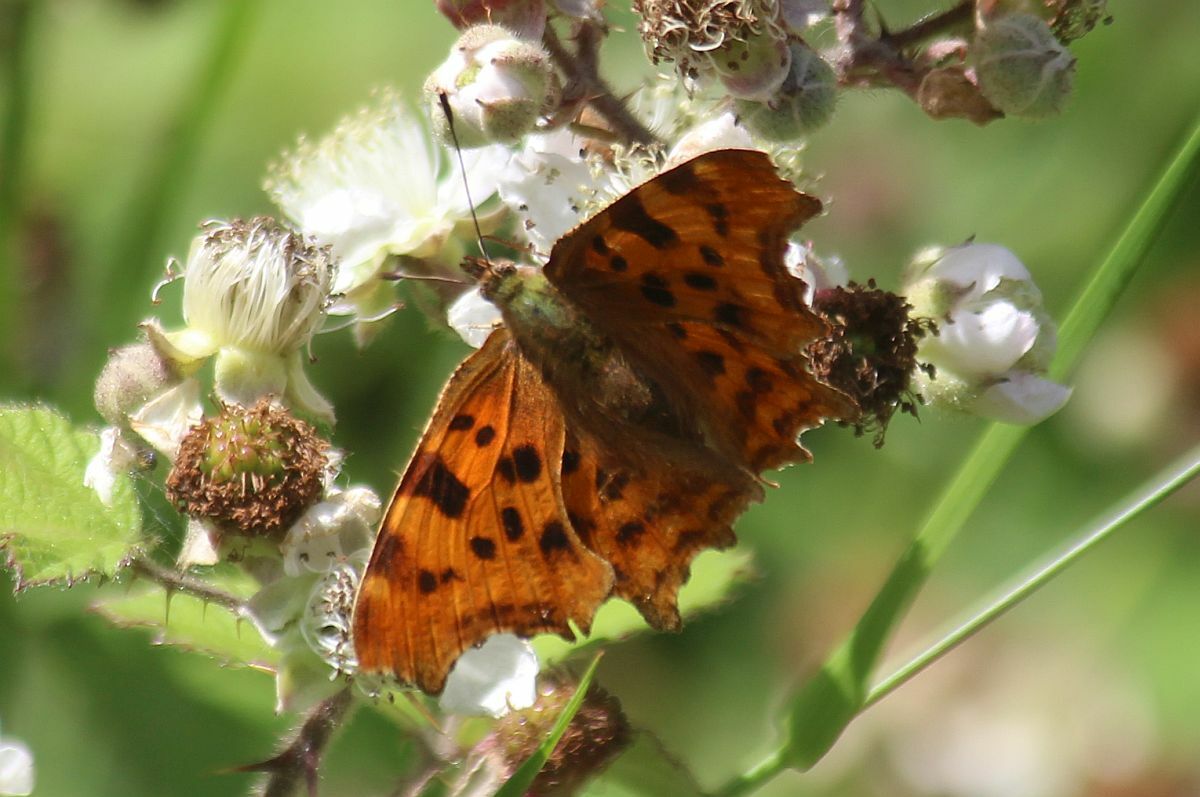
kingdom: Animalia
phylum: Arthropoda
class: Insecta
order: Lepidoptera
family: Nymphalidae
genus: Polygonia
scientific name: Polygonia c-album
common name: Comma
